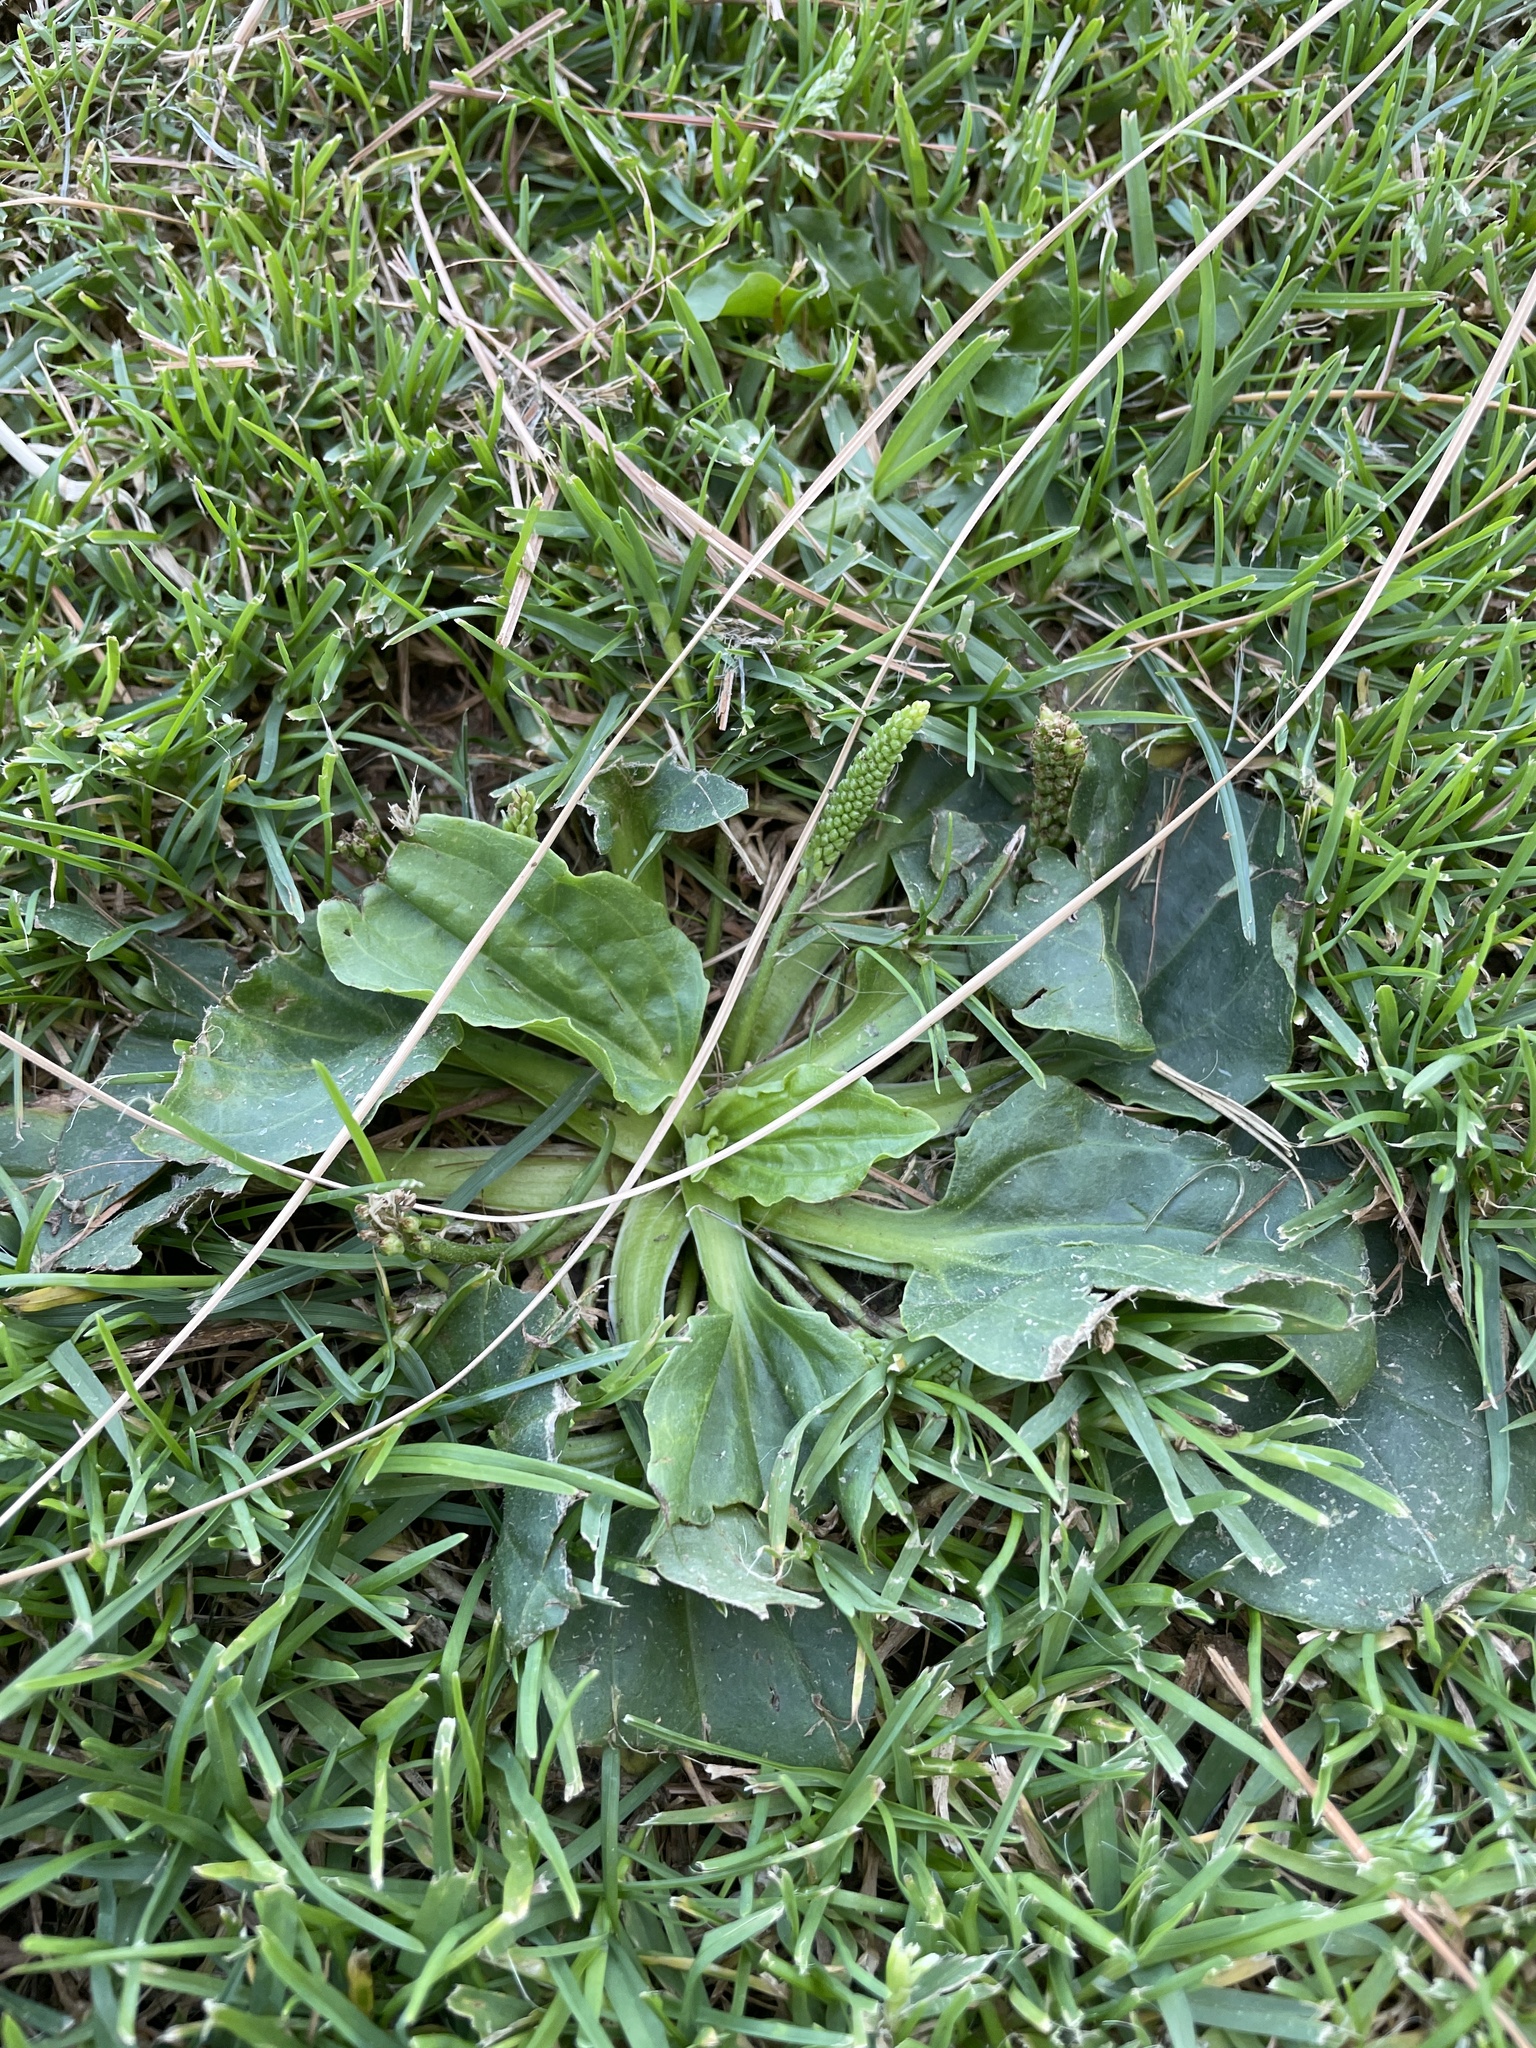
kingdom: Plantae
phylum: Tracheophyta
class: Magnoliopsida
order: Lamiales
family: Plantaginaceae
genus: Plantago
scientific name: Plantago major
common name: Common plantain
